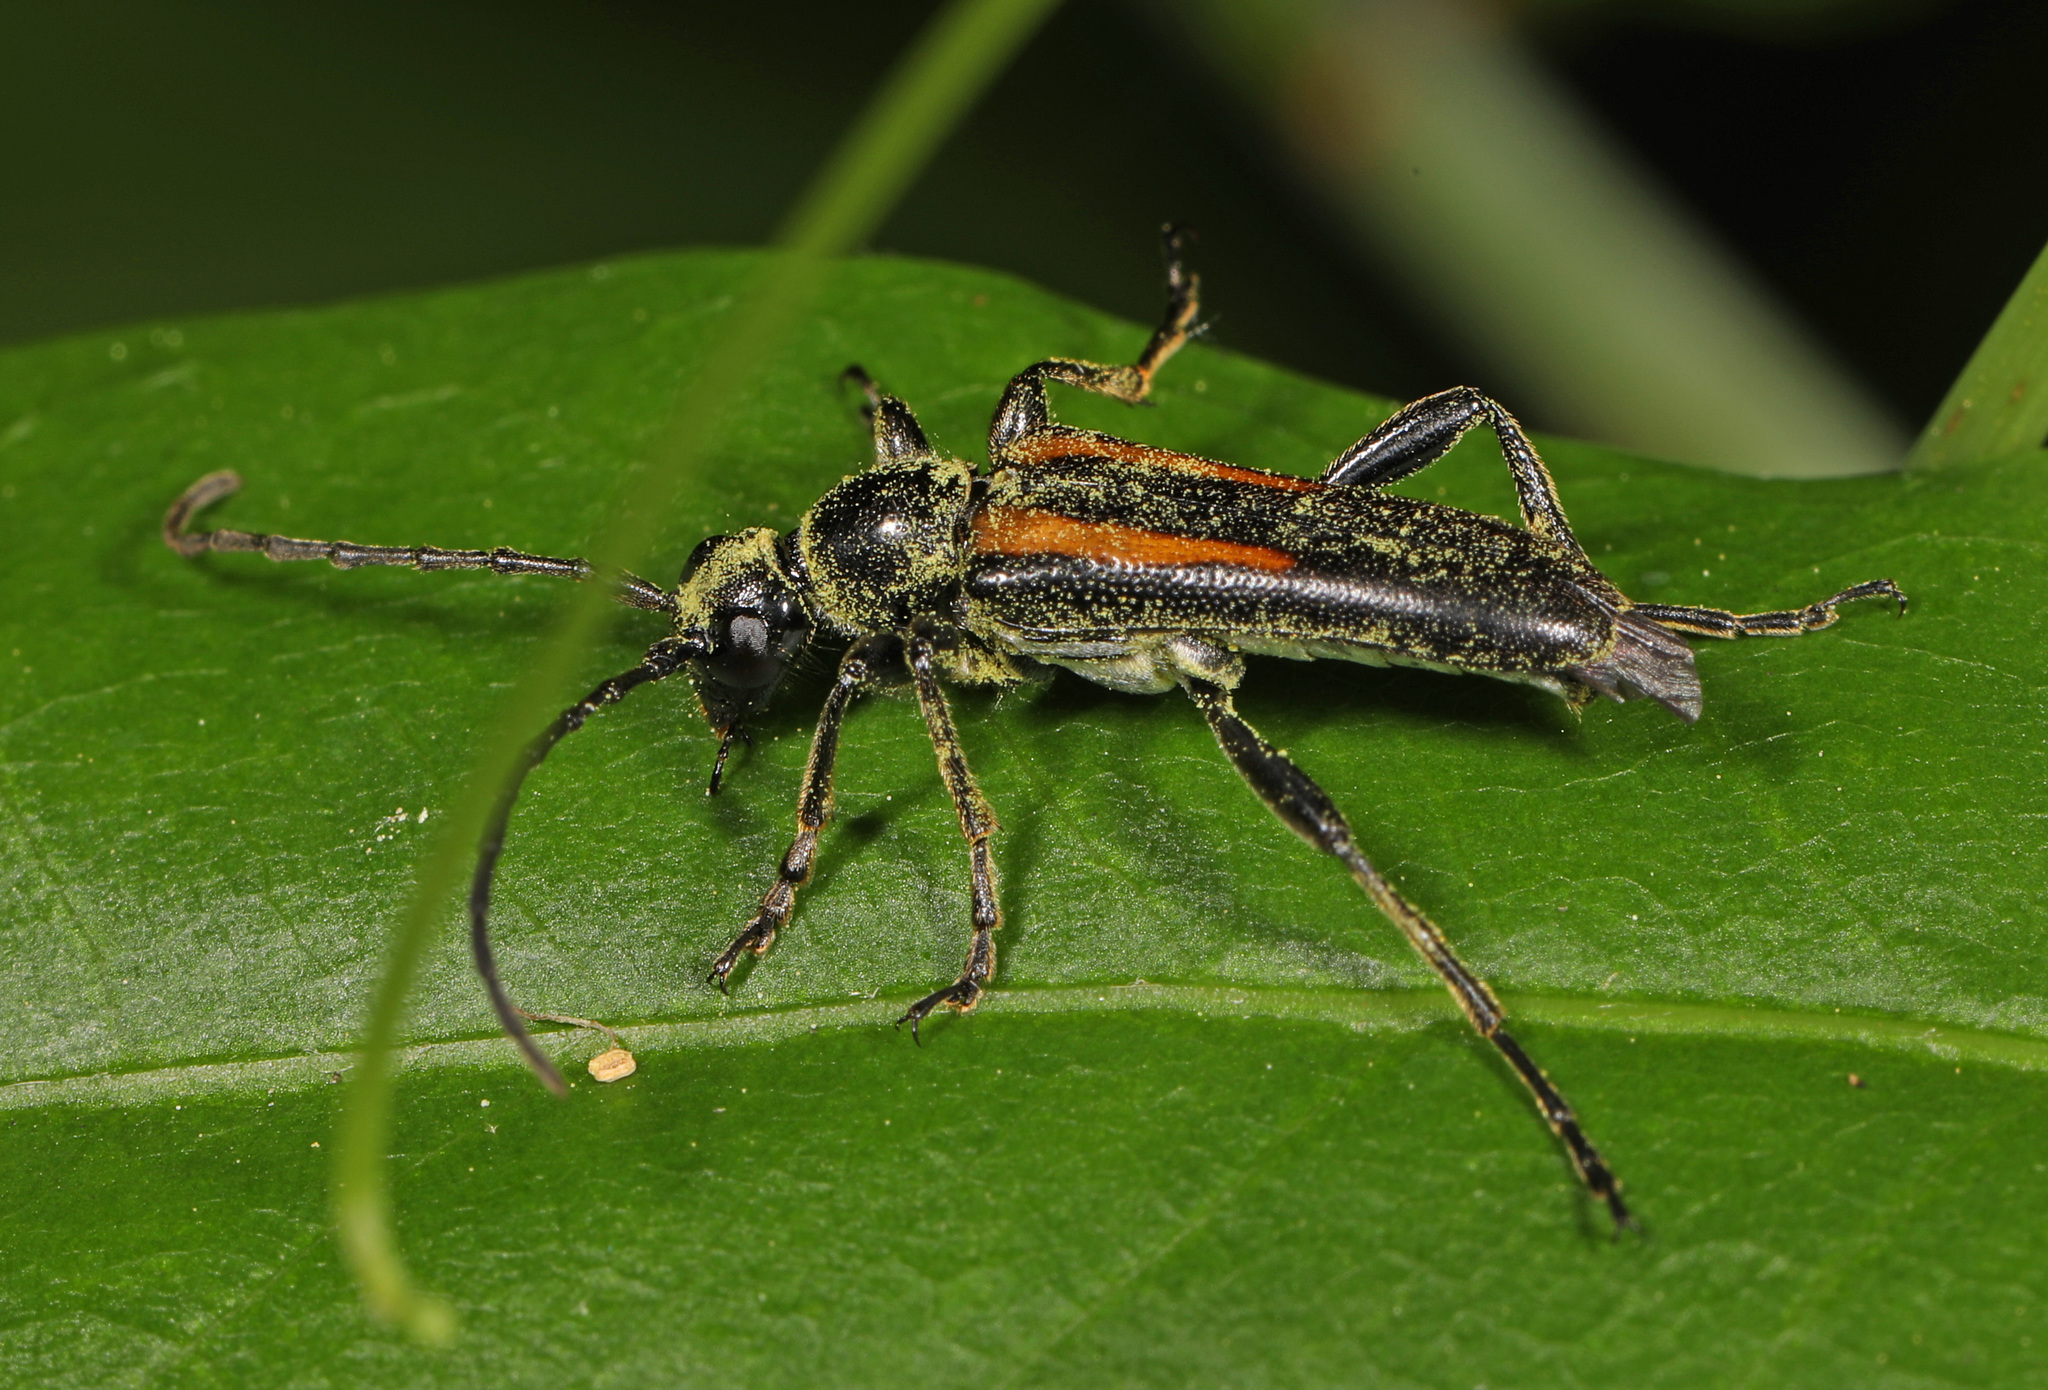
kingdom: Animalia
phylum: Arthropoda
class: Insecta
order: Coleoptera
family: Cerambycidae
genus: Strangalepta
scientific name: Strangalepta abbreviata
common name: Strangalepta flower longhorn beetle
